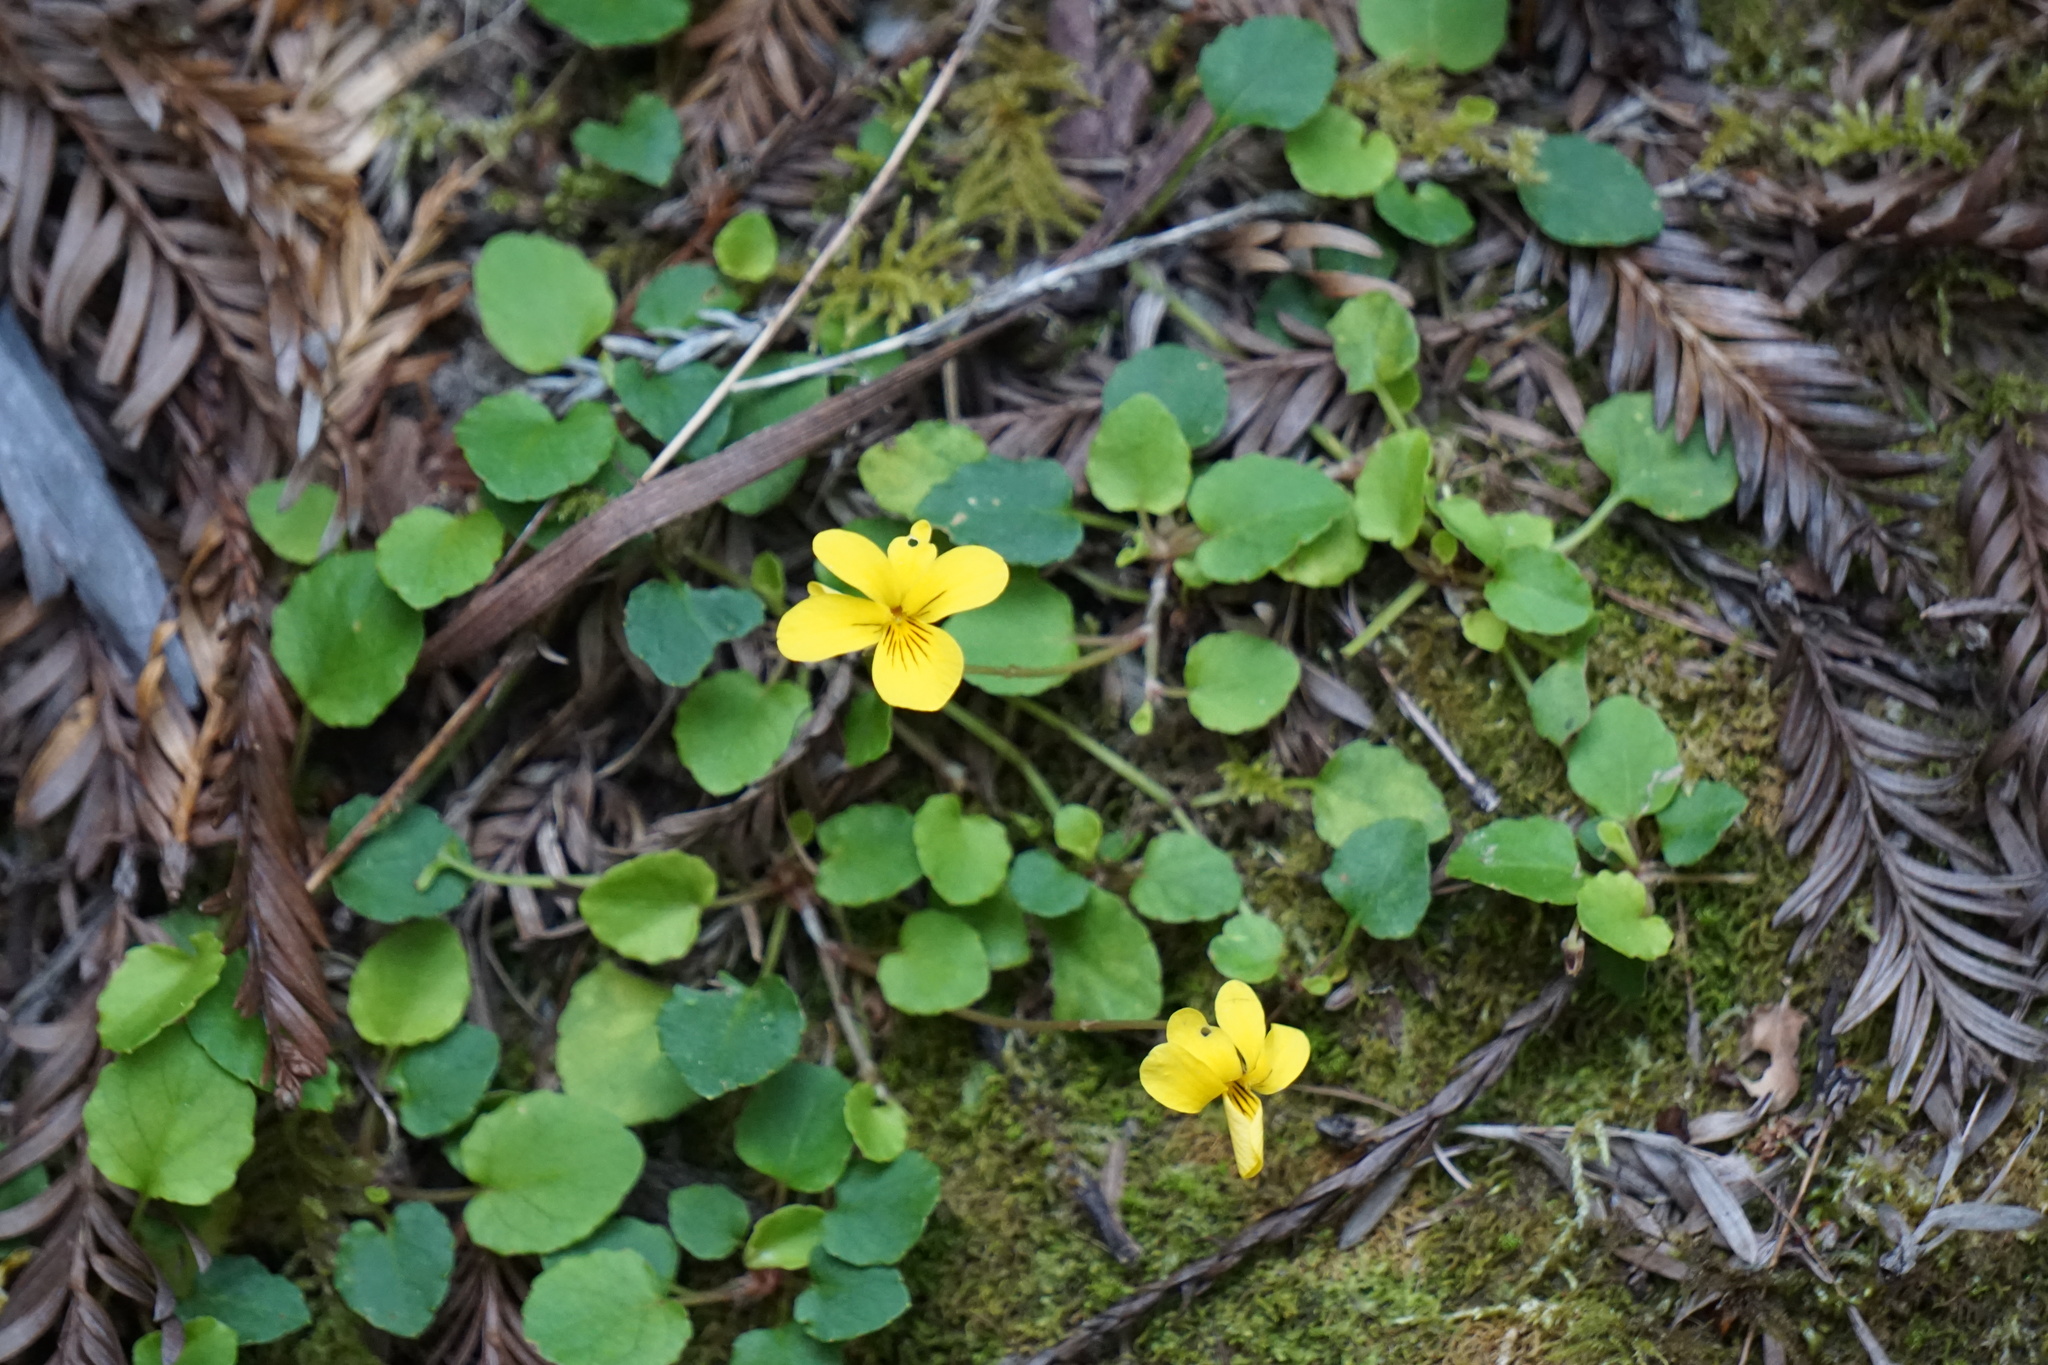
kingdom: Plantae
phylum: Tracheophyta
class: Magnoliopsida
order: Malpighiales
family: Violaceae
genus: Viola
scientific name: Viola sempervirens
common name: Evergreen violet
